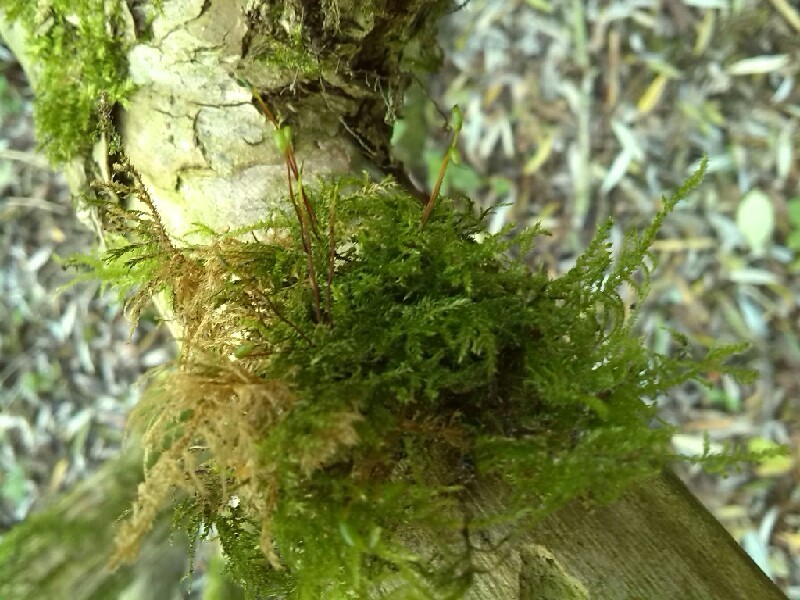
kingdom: Plantae
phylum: Bryophyta
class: Bryopsida
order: Hypnales
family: Brachytheciaceae
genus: Kindbergia
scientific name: Kindbergia praelonga
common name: Slender beaked moss
